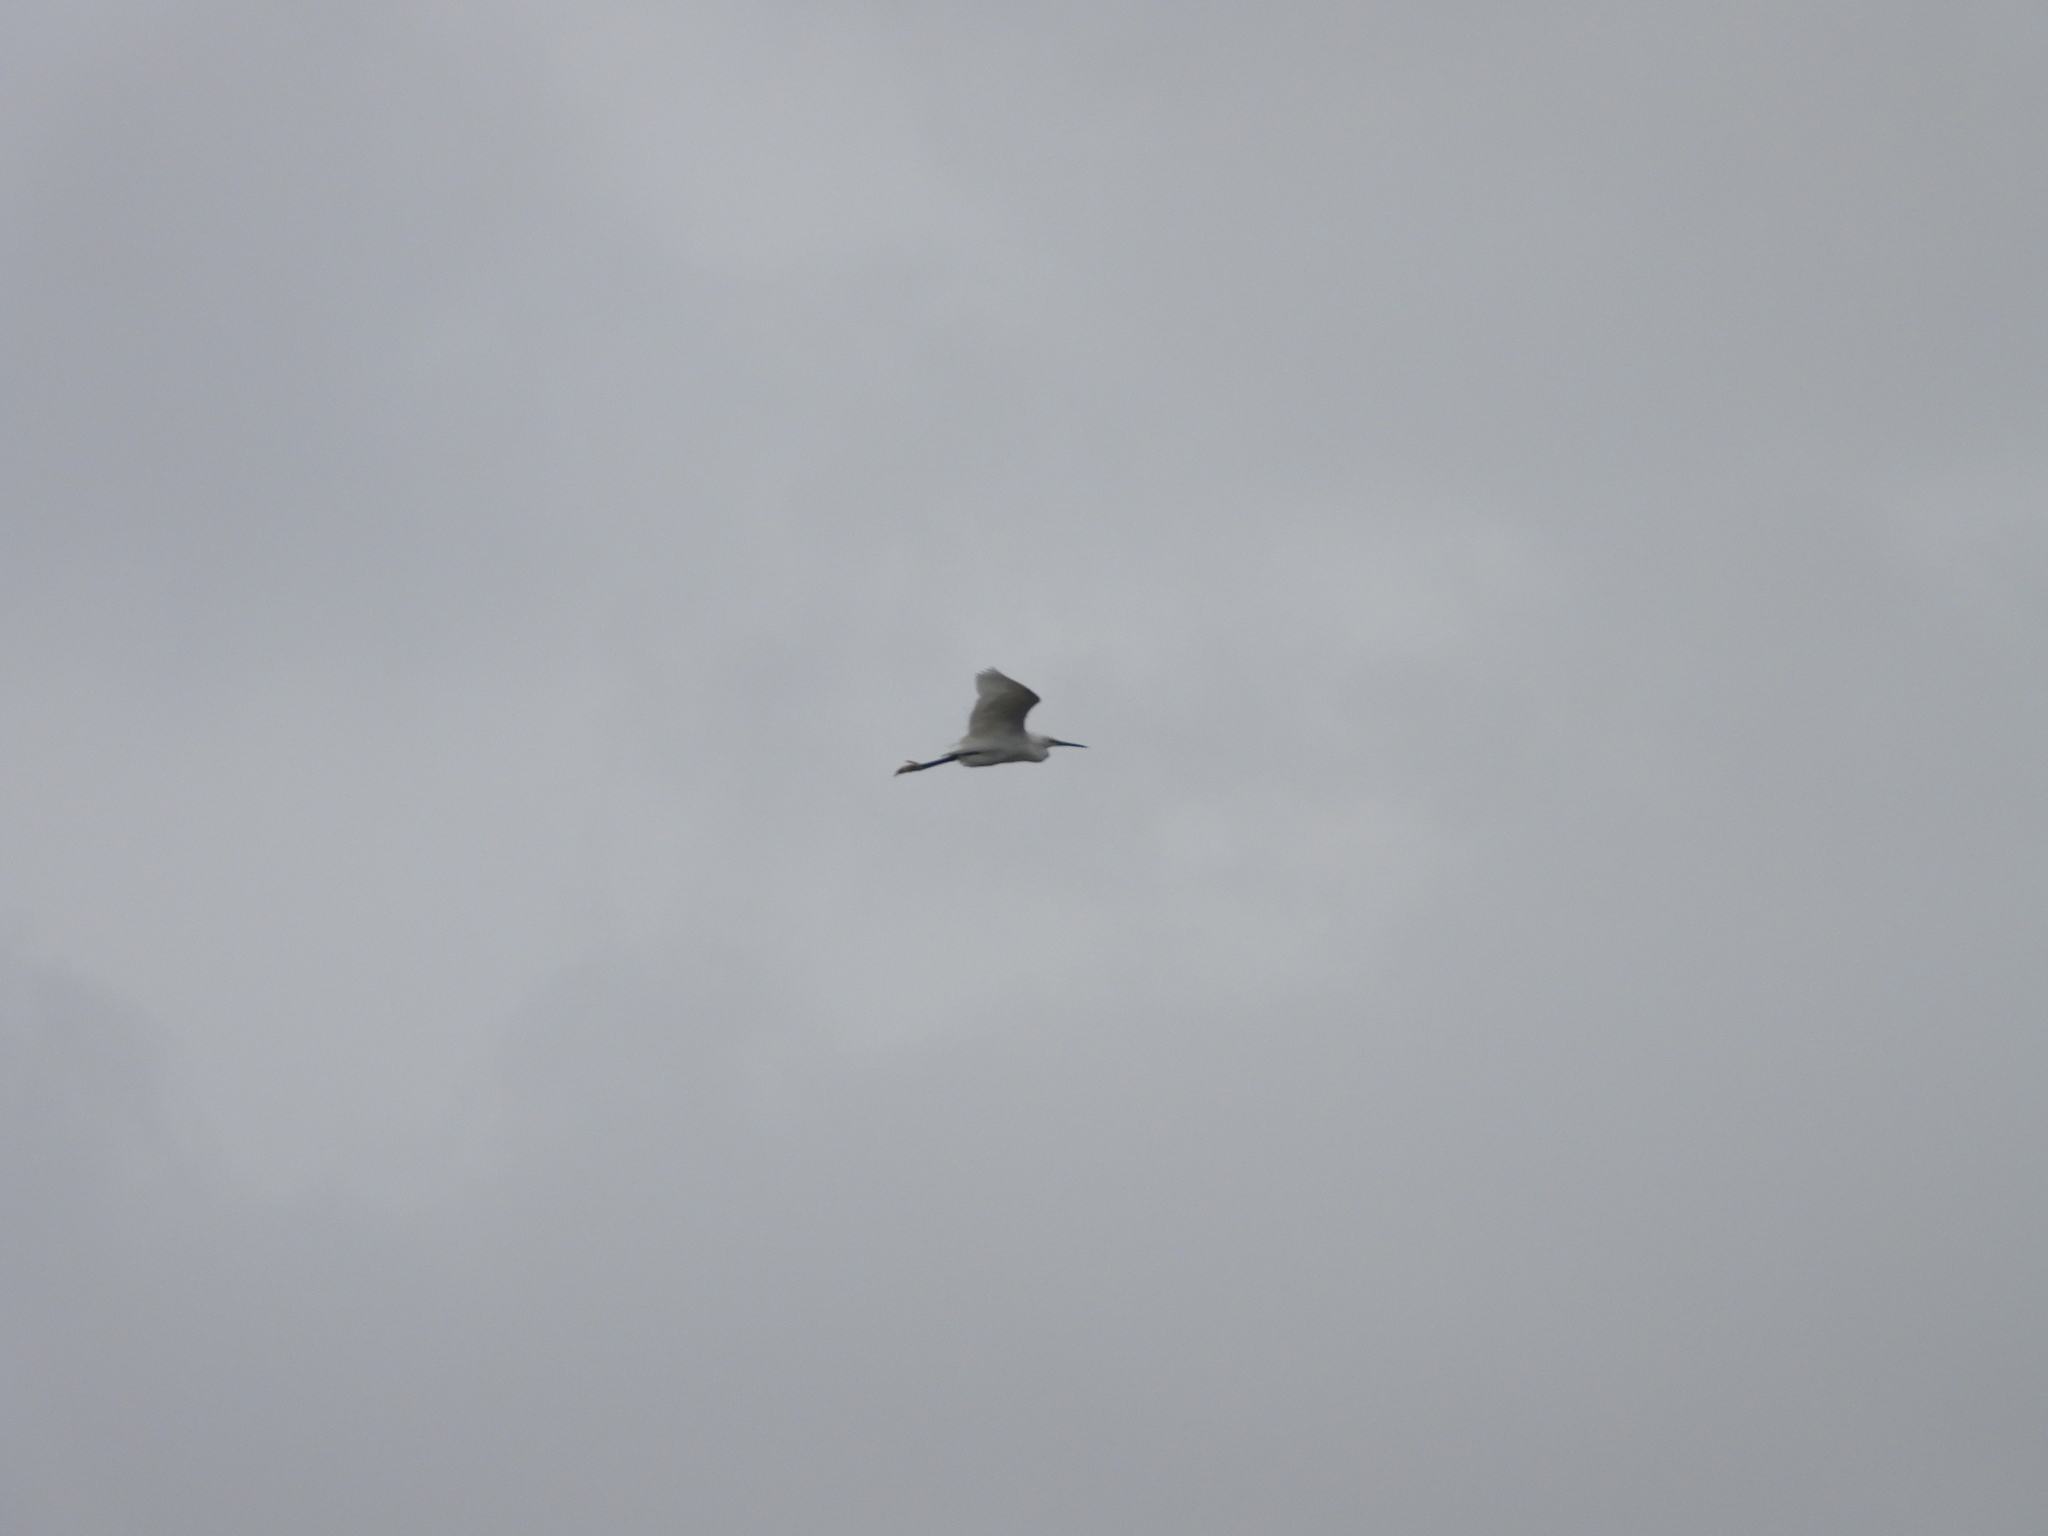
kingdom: Animalia
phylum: Chordata
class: Aves
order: Pelecaniformes
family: Ardeidae
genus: Egretta
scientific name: Egretta garzetta
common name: Little egret
